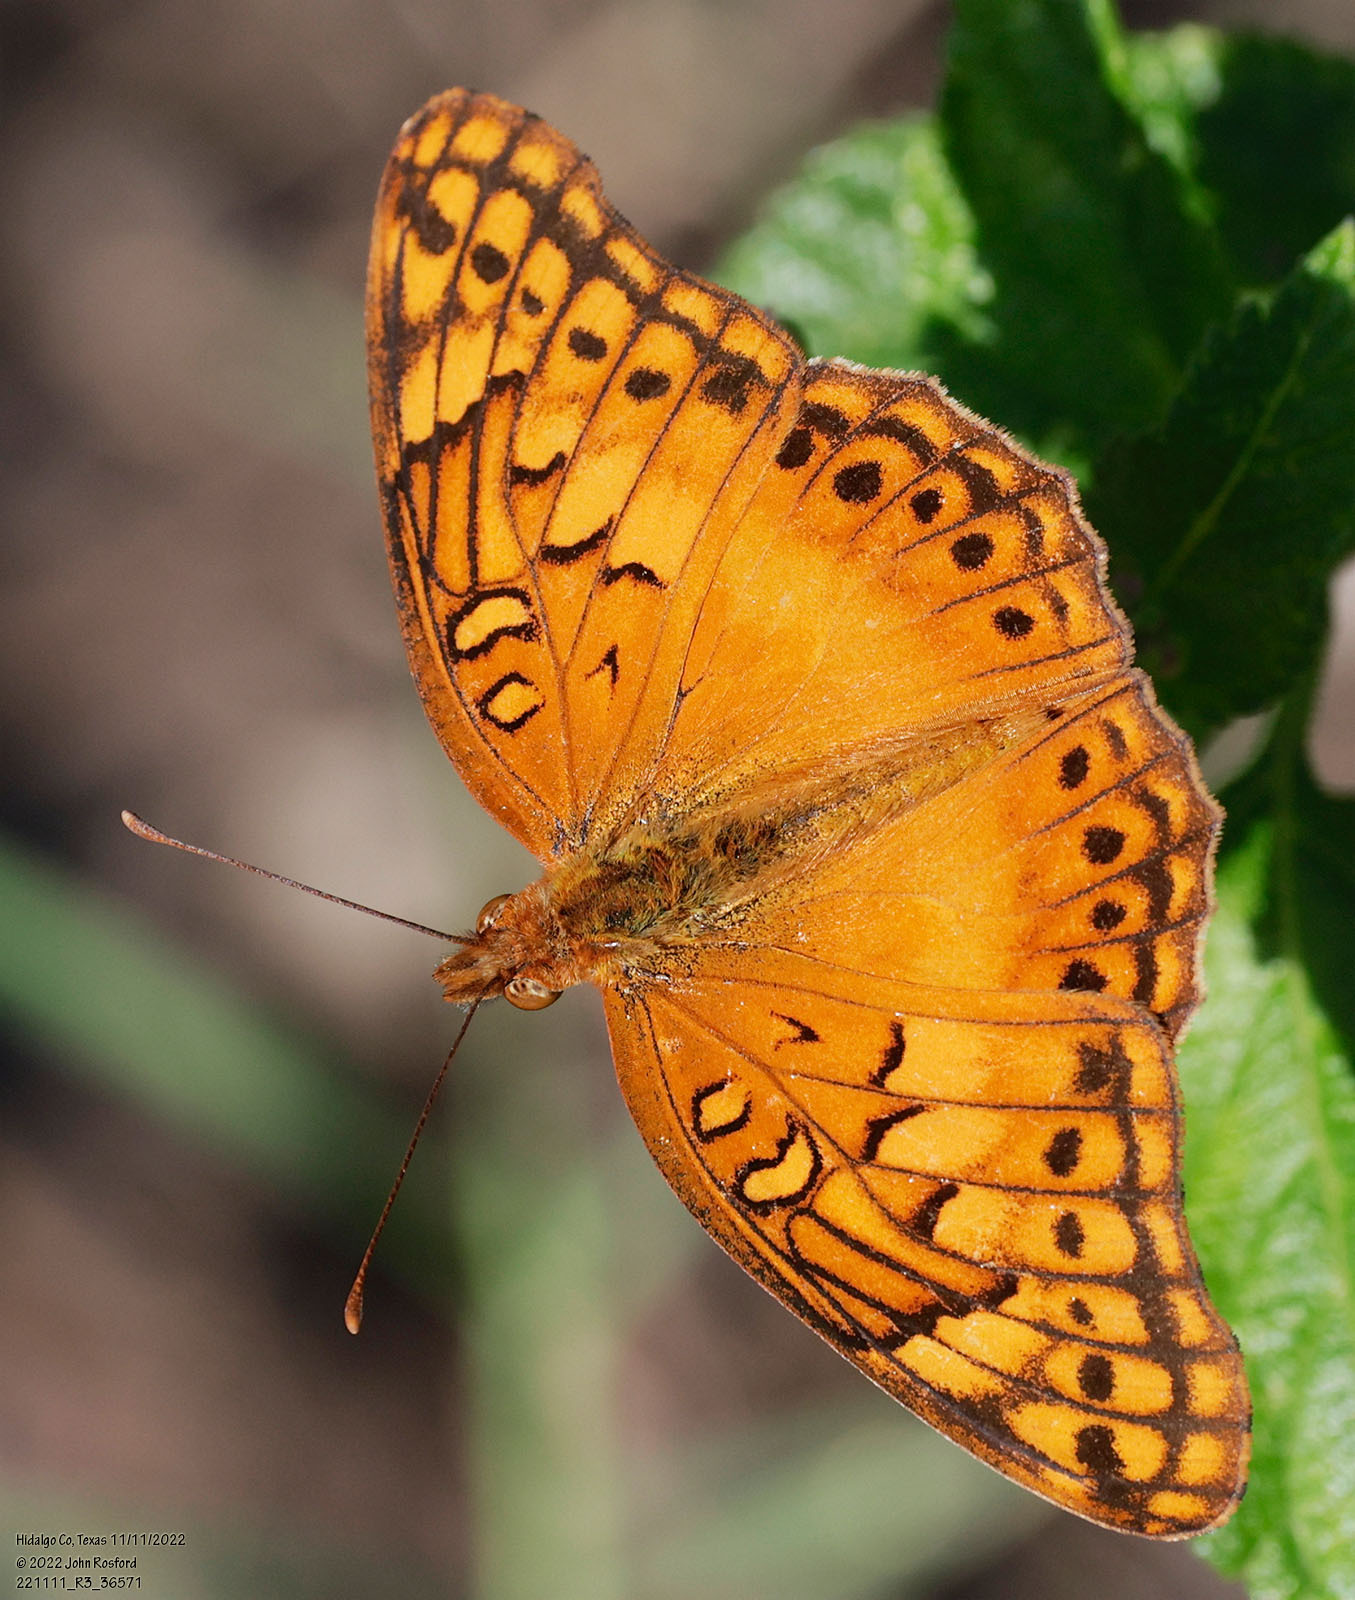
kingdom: Animalia
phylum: Arthropoda
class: Insecta
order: Lepidoptera
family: Nymphalidae
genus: Euptoieta
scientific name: Euptoieta hegesia
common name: Mexican fritillary
